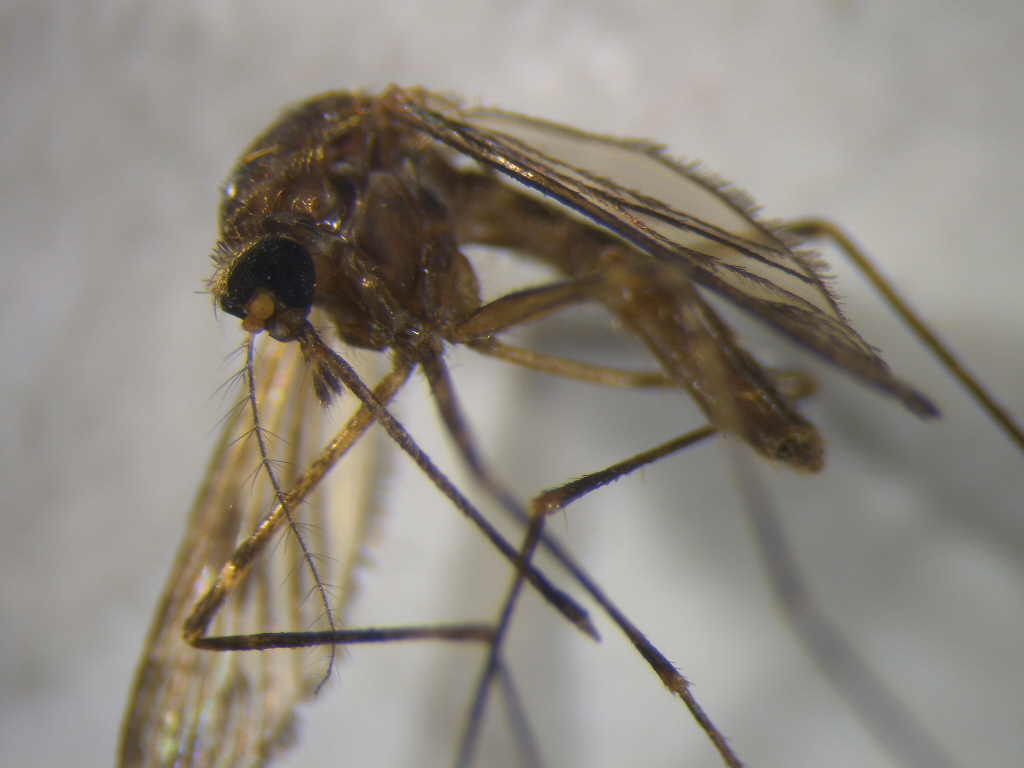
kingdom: Animalia
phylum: Arthropoda
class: Insecta
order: Diptera
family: Culicidae
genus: Culiseta
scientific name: Culiseta tonnoiri
